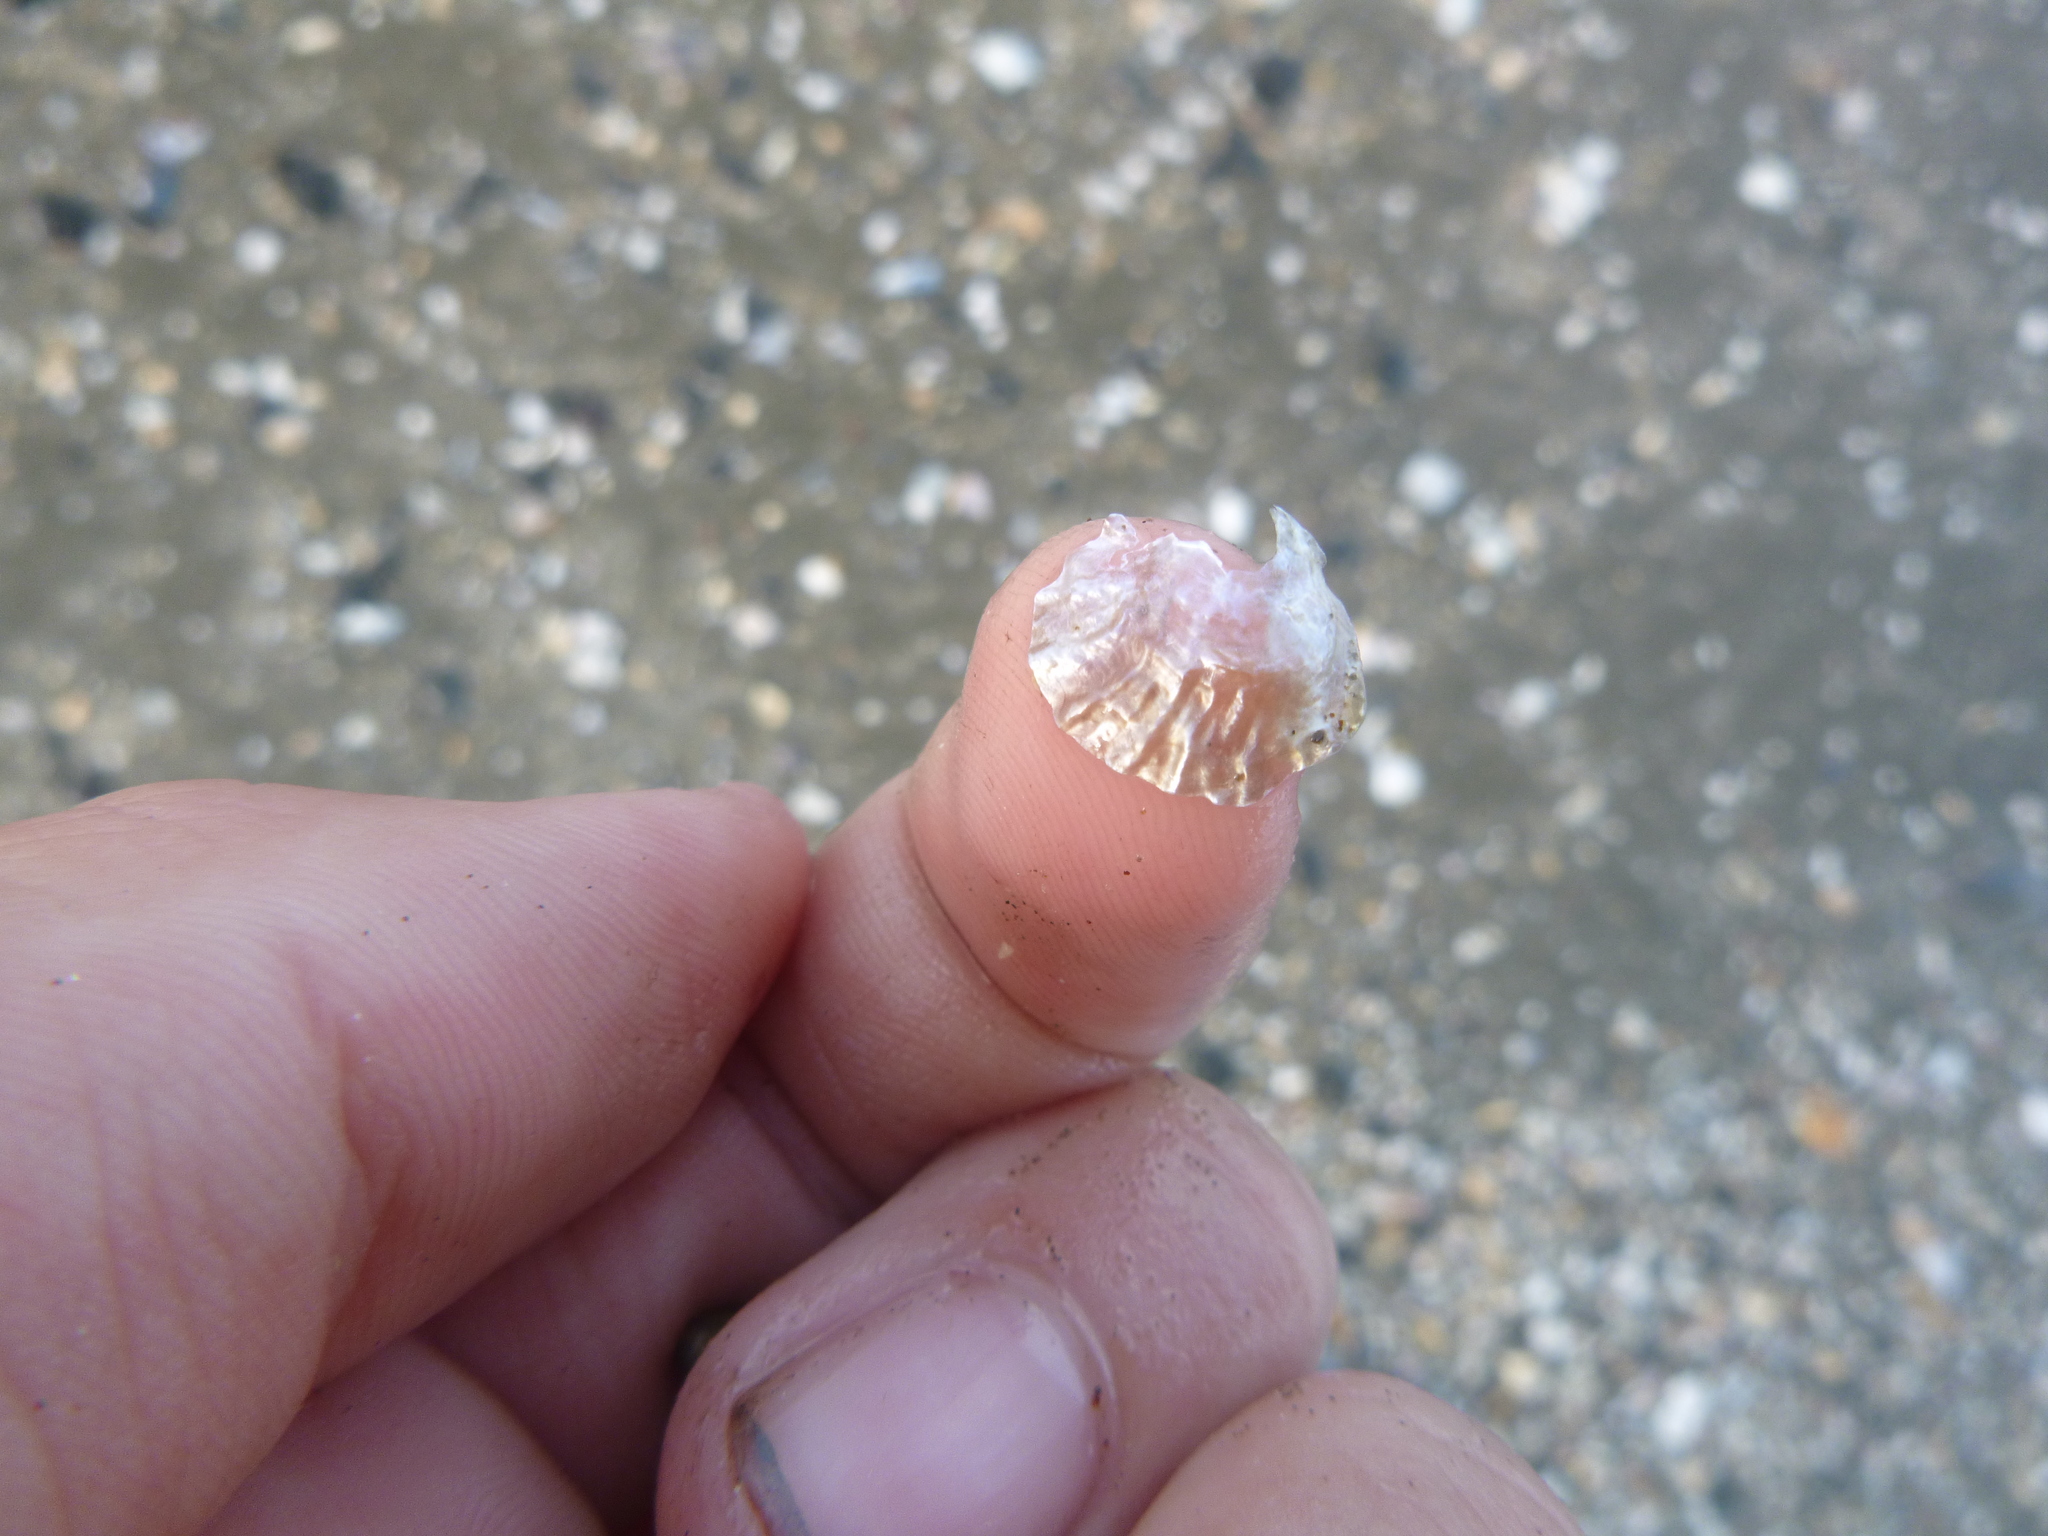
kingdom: Animalia
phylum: Mollusca
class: Bivalvia
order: Pectinida
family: Anomiidae
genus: Anomia
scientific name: Anomia trigonopsis
